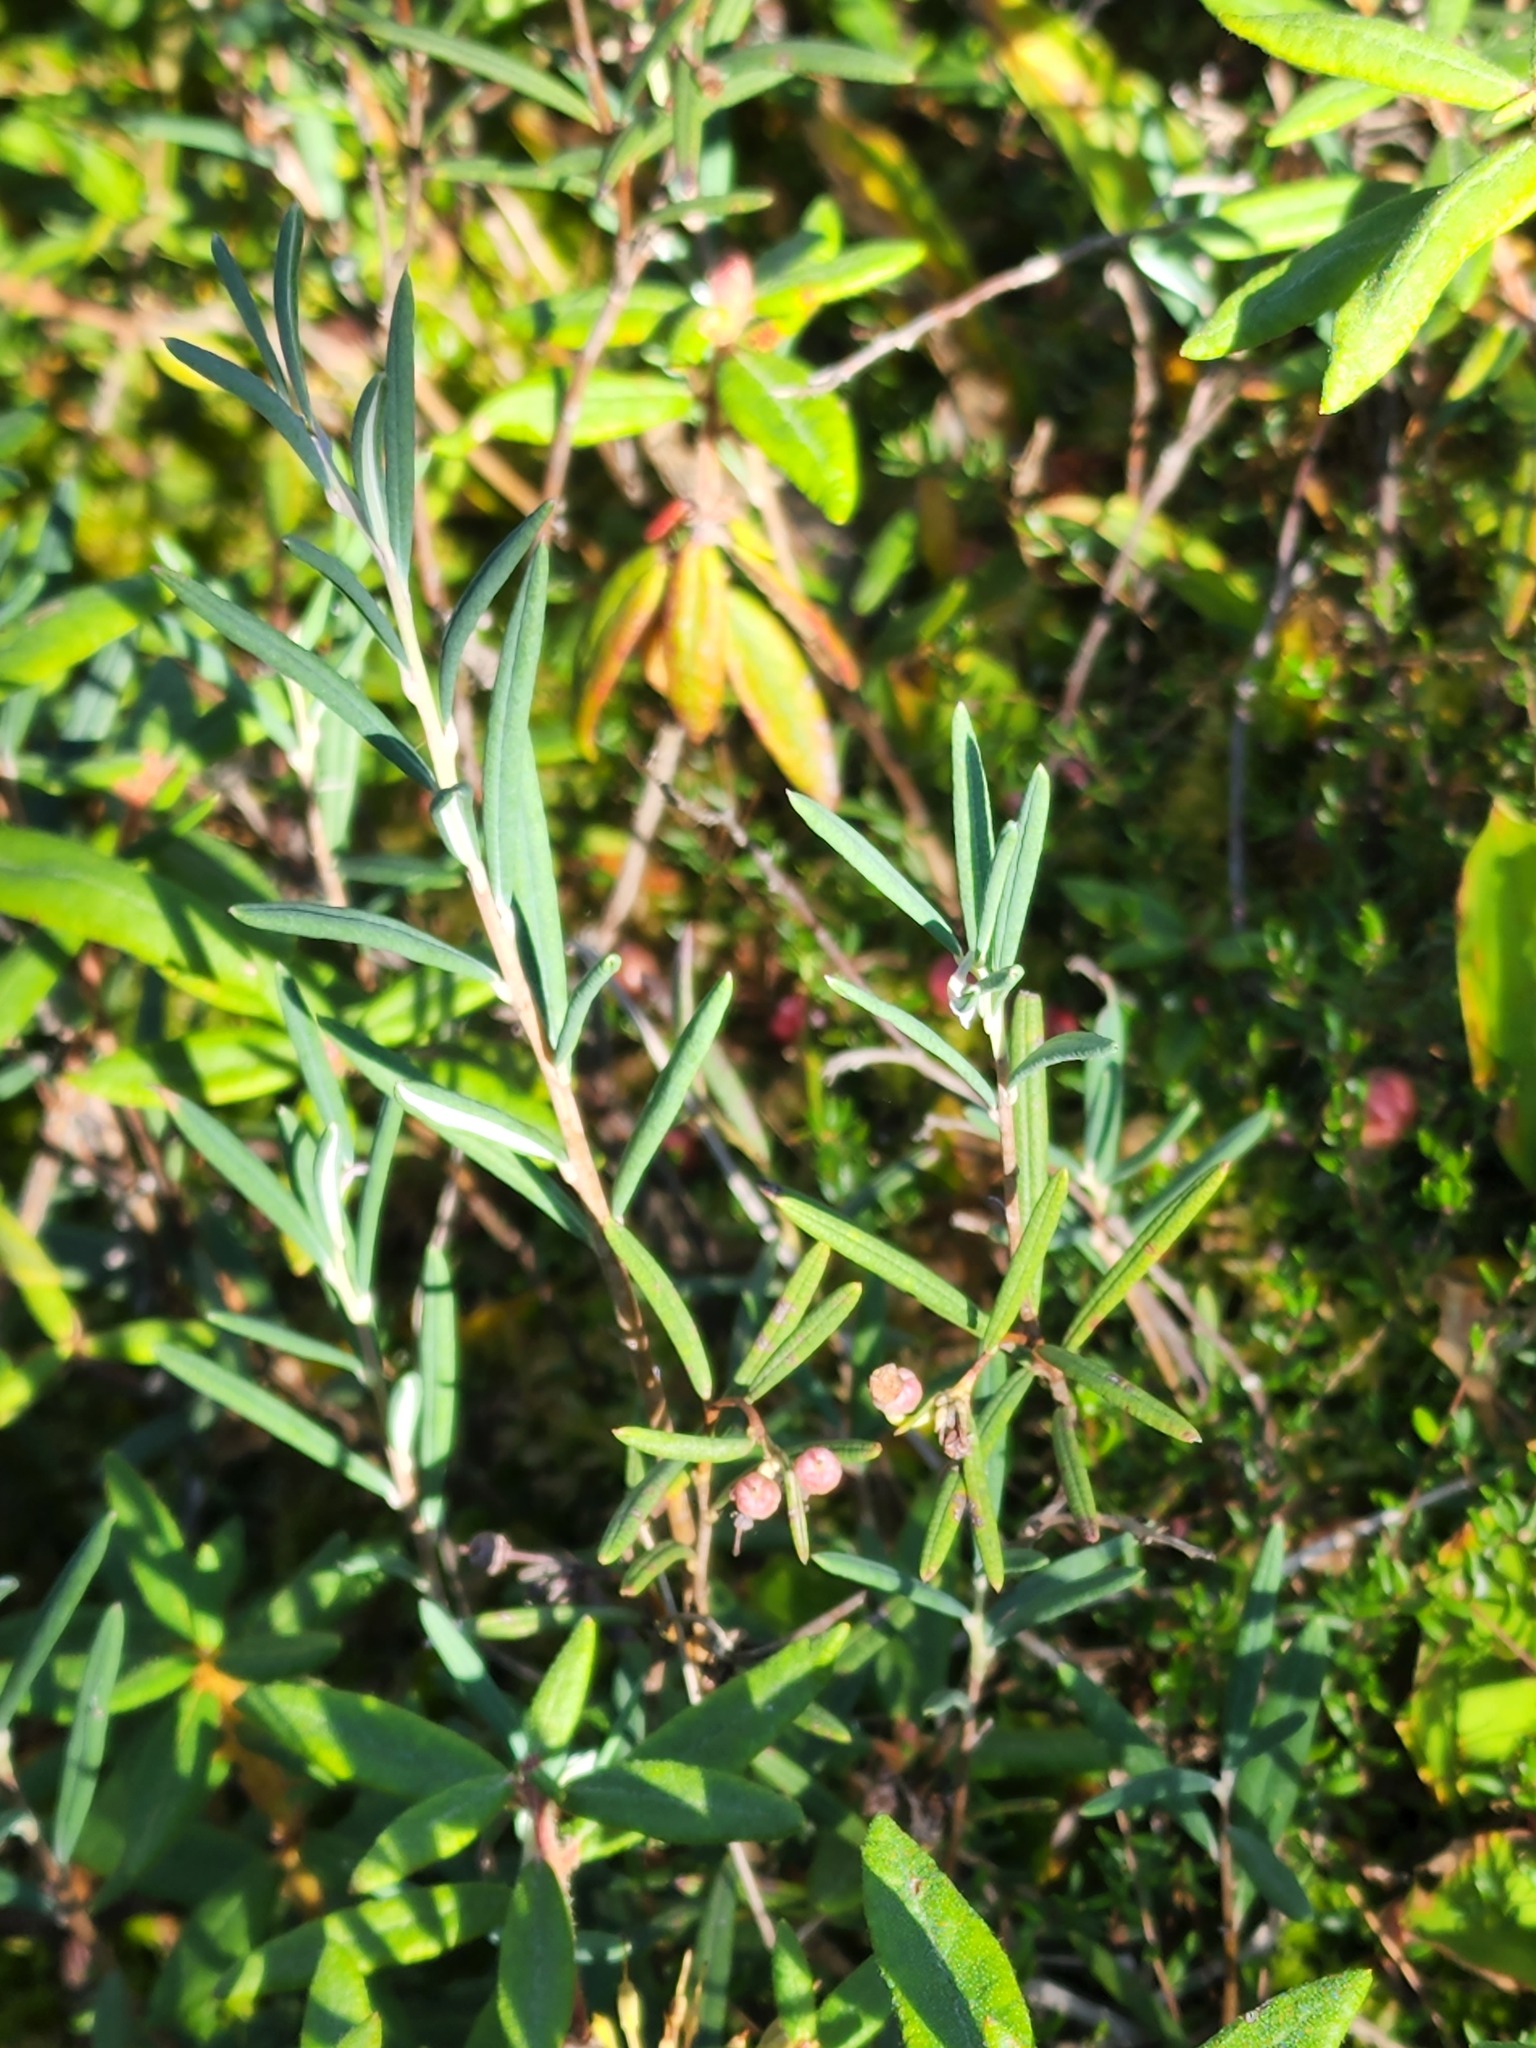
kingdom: Plantae
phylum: Tracheophyta
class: Magnoliopsida
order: Ericales
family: Ericaceae
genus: Andromeda
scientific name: Andromeda polifolia
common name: Bog-rosemary
